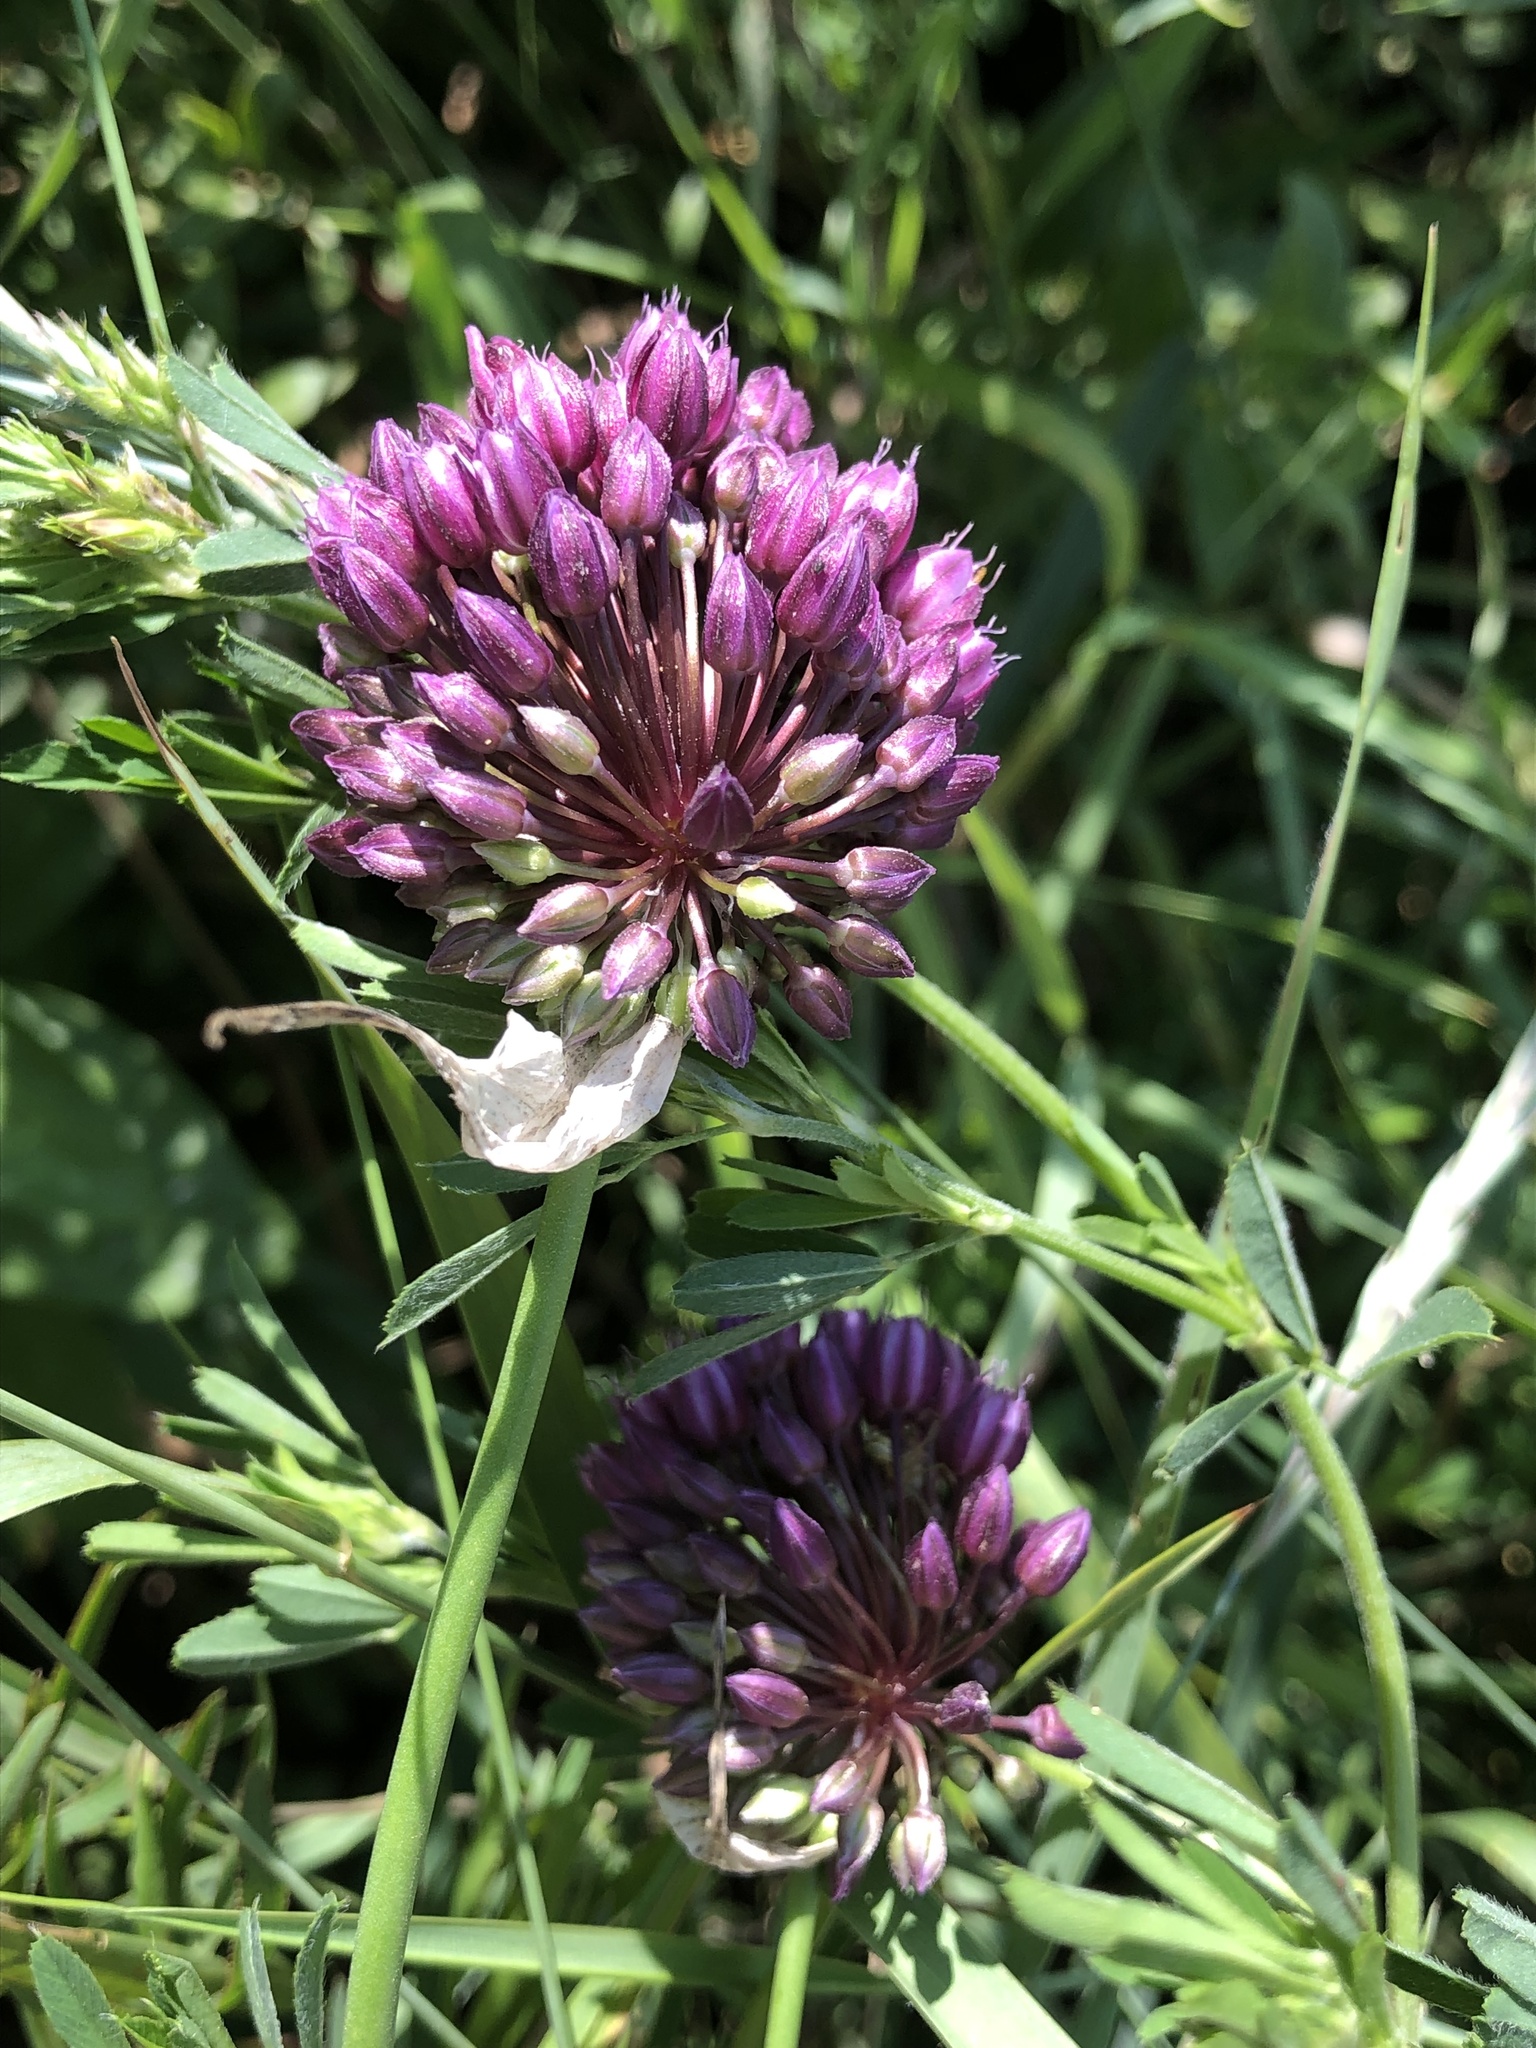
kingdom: Plantae
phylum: Tracheophyta
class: Liliopsida
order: Asparagales
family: Amaryllidaceae
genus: Allium
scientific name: Allium rotundum
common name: Sand leek
